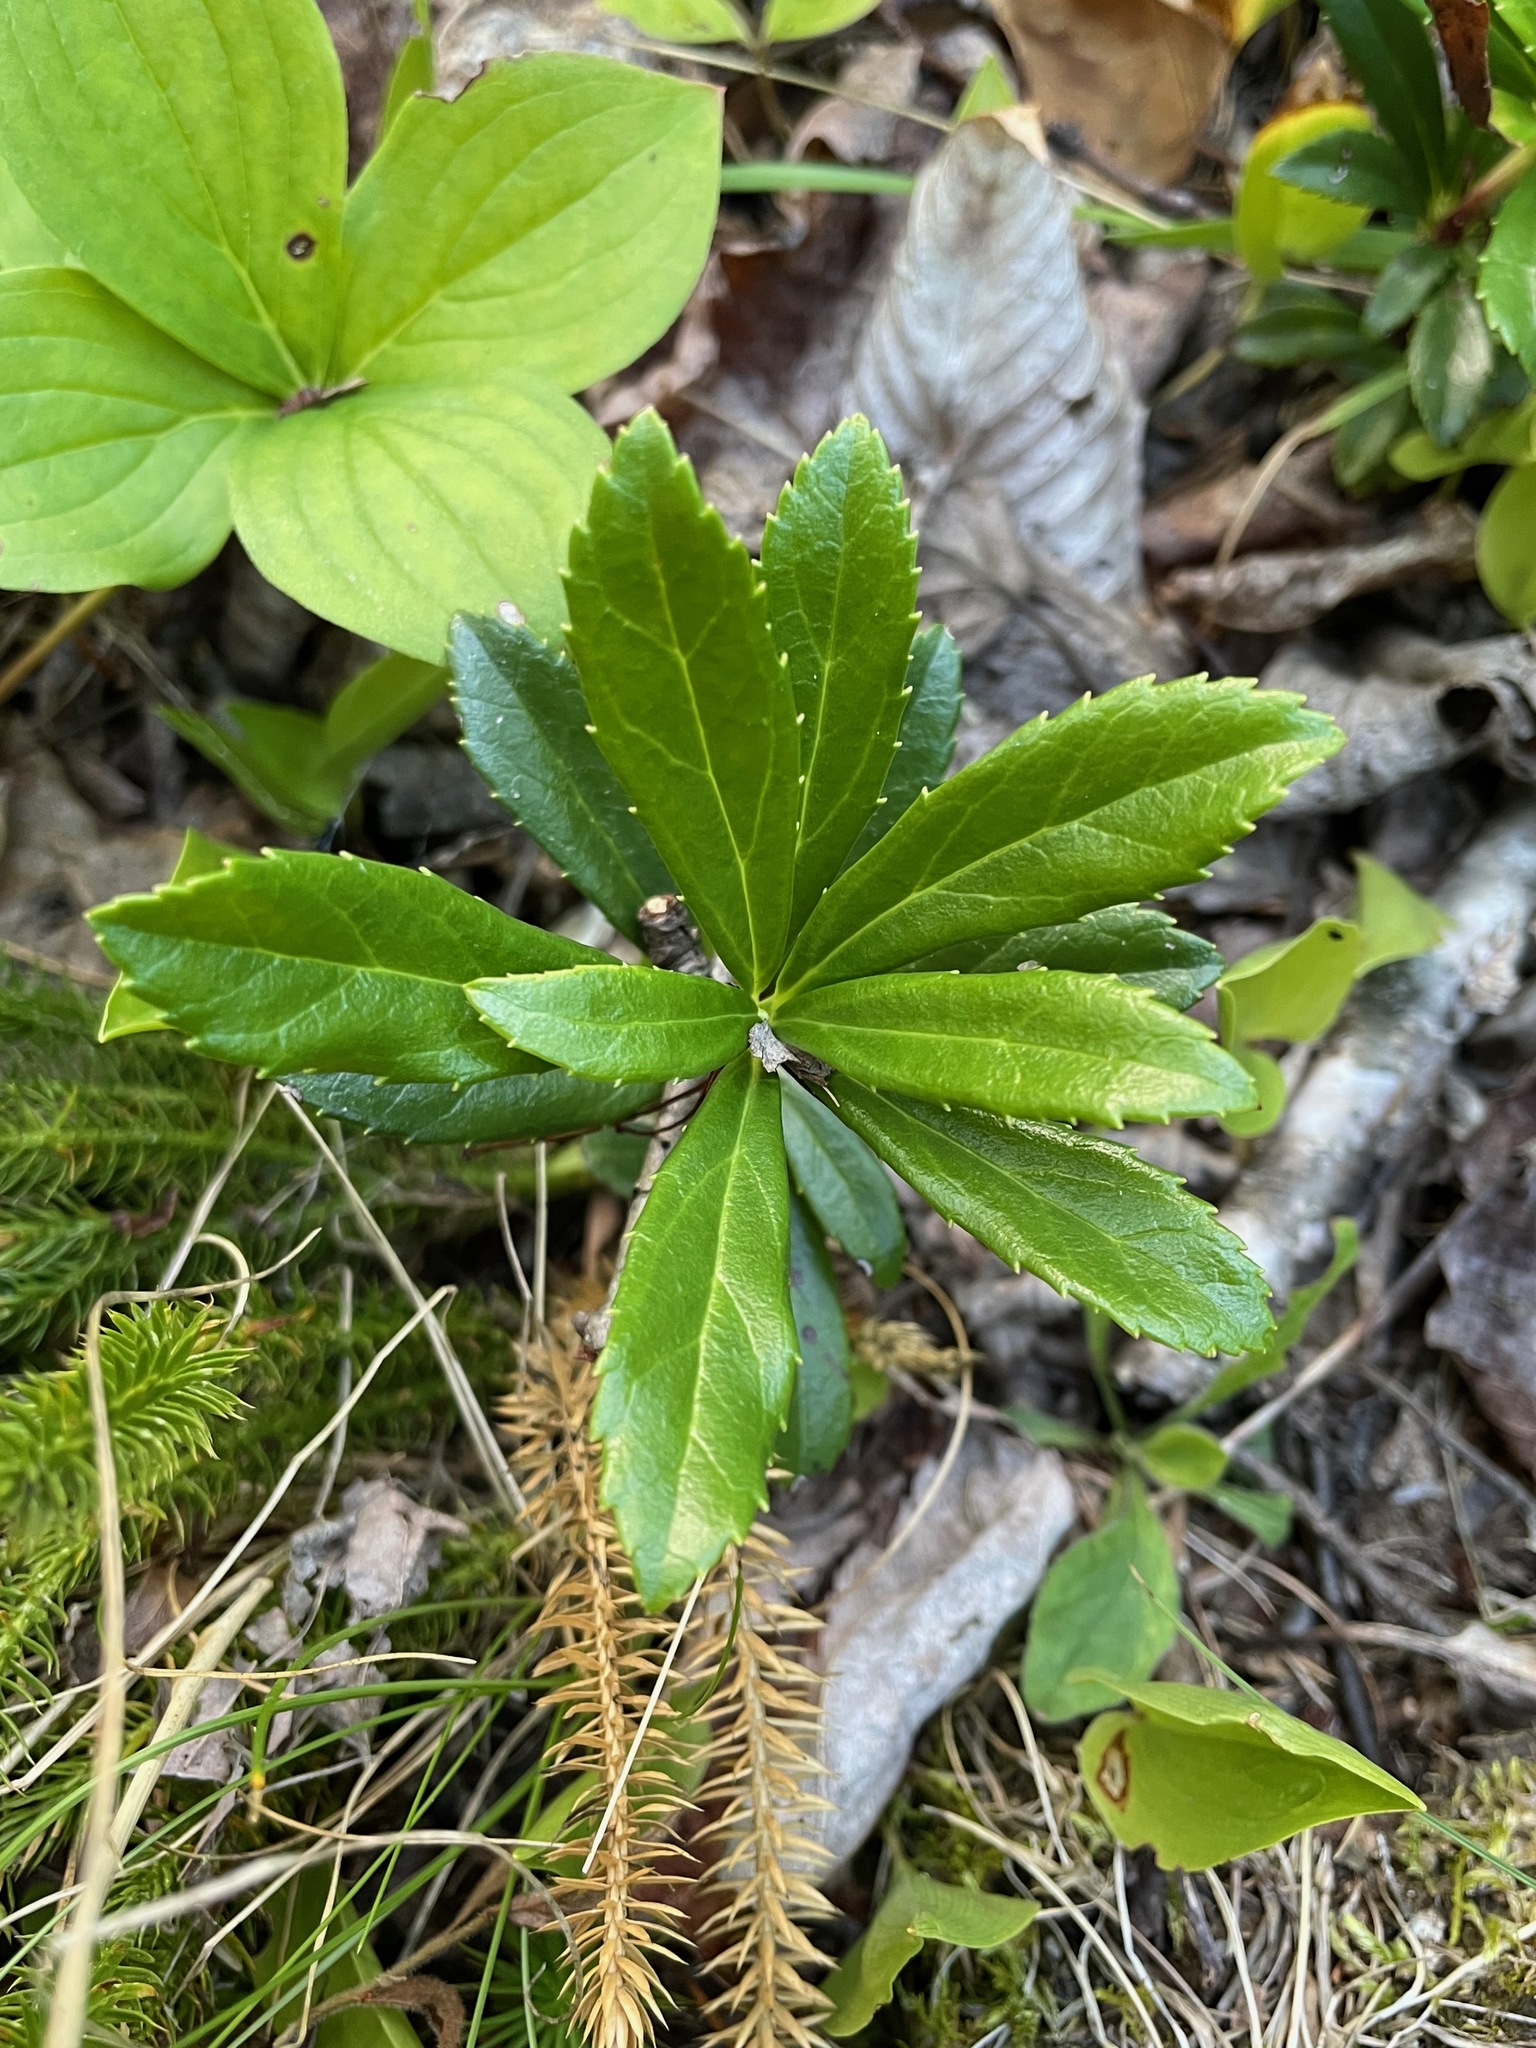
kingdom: Plantae
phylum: Tracheophyta
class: Magnoliopsida
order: Ericales
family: Ericaceae
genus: Chimaphila
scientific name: Chimaphila umbellata
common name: Pipsissewa
